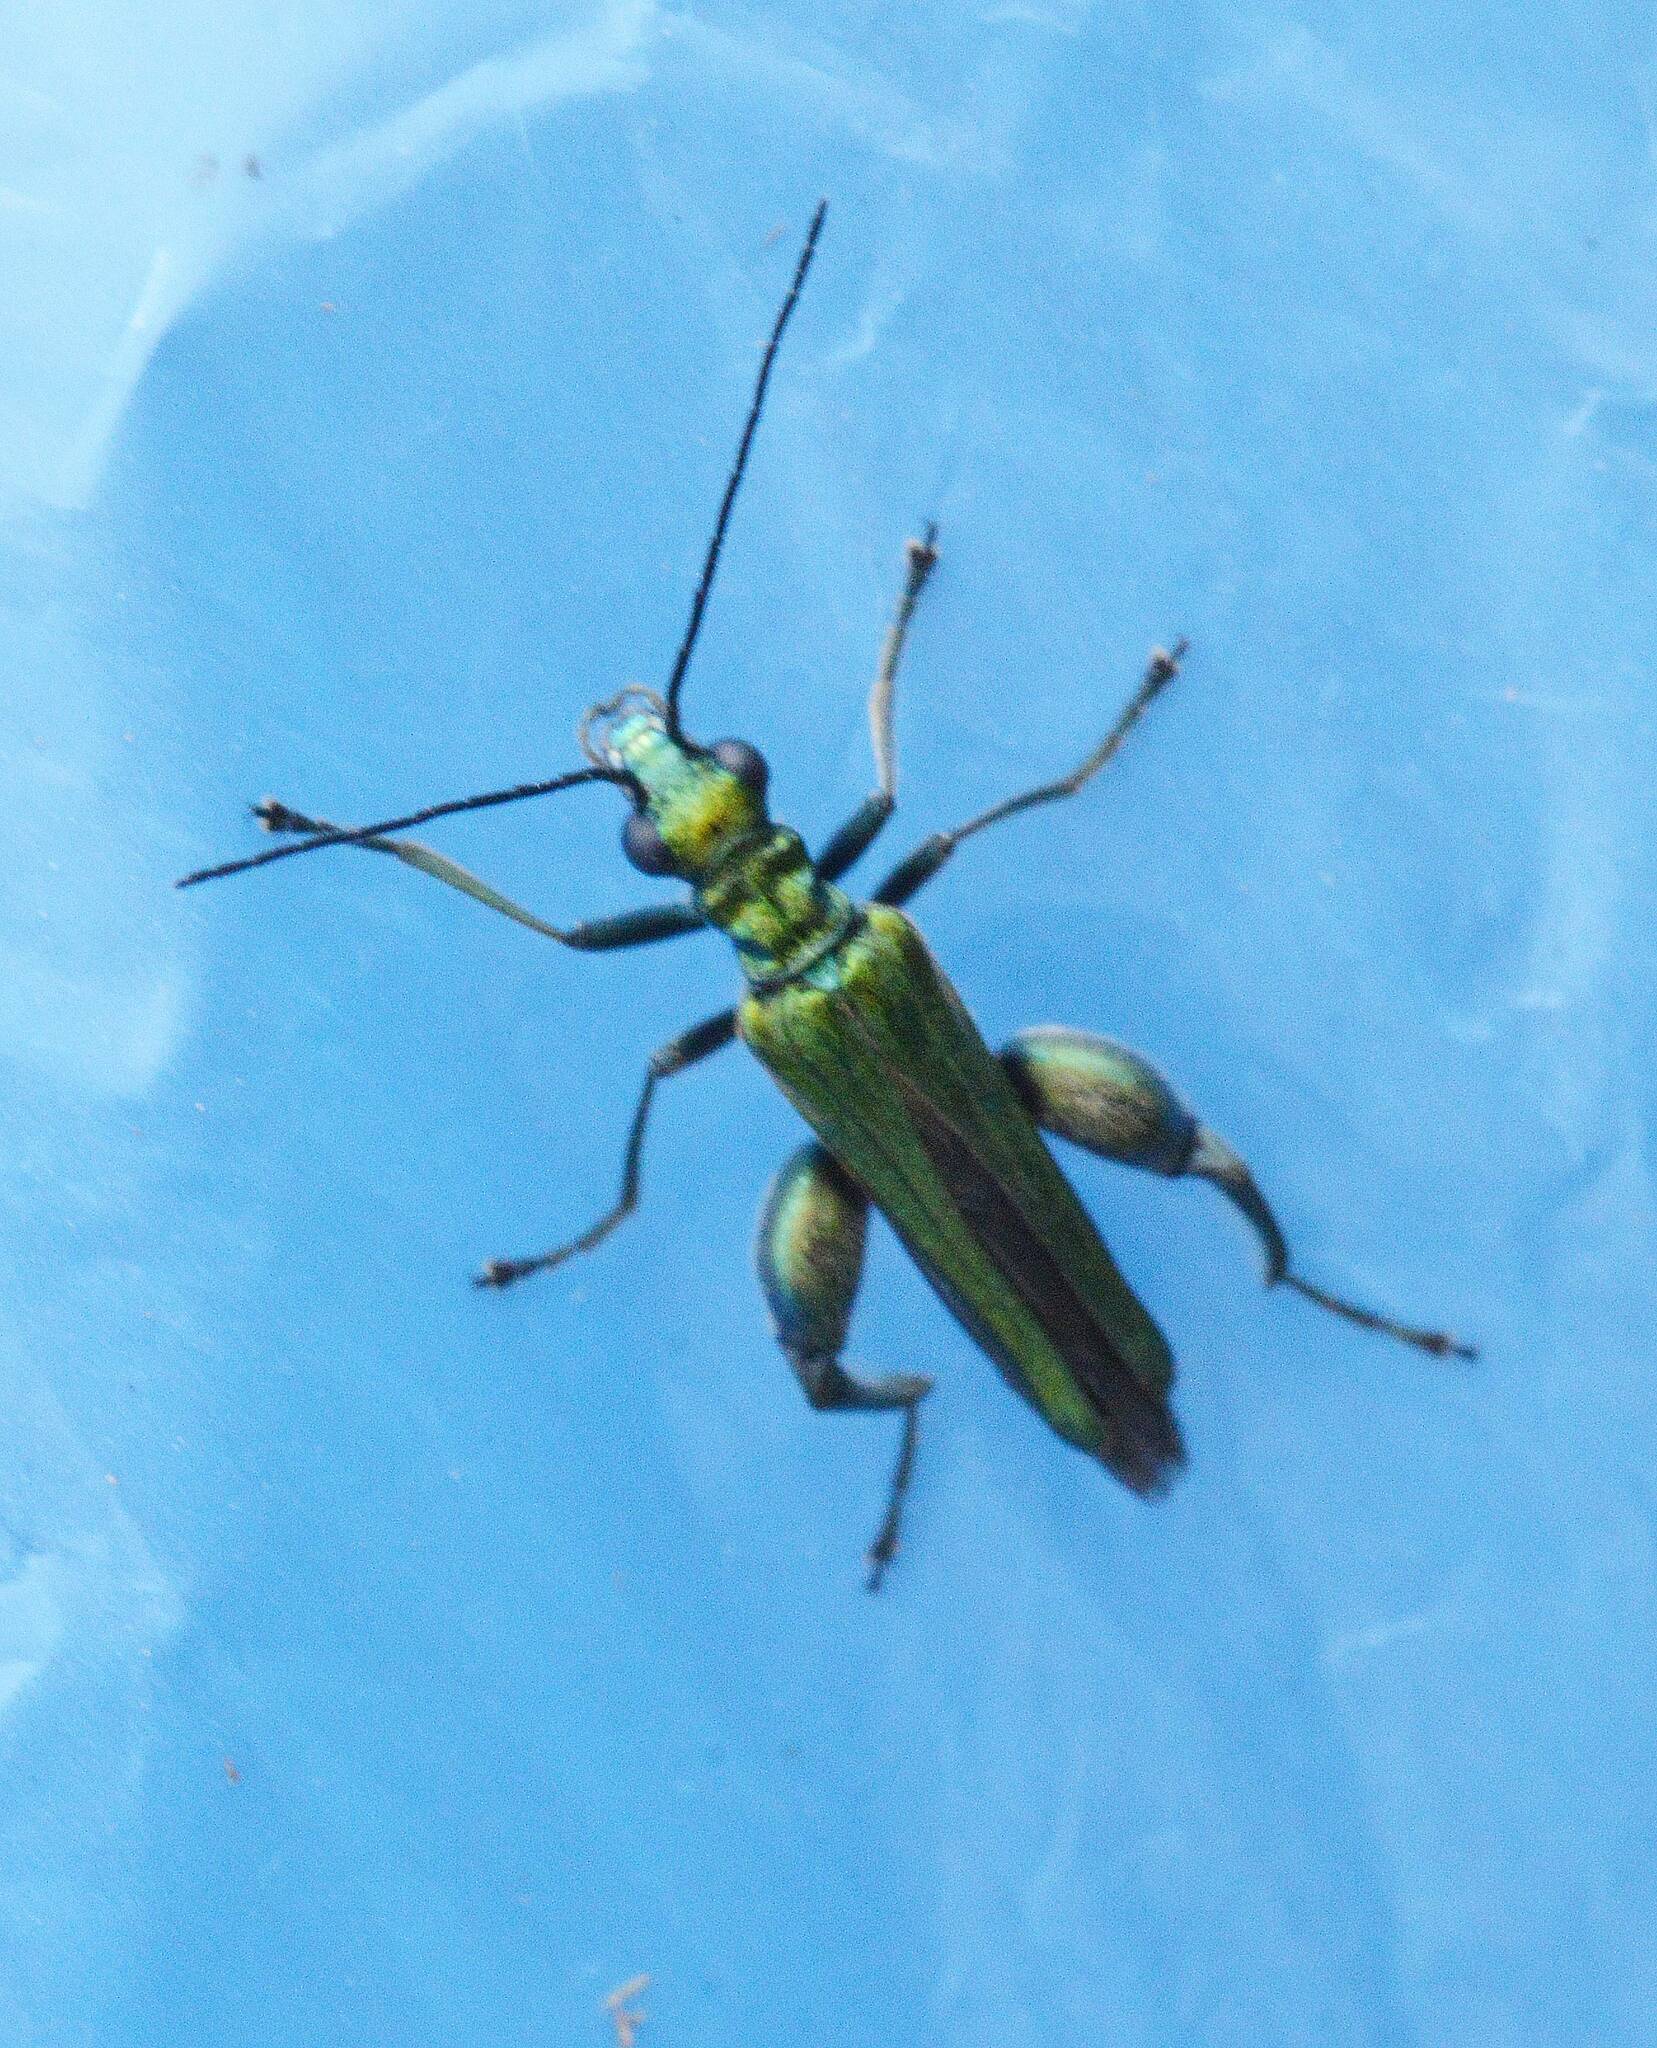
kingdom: Animalia
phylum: Arthropoda
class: Insecta
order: Coleoptera
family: Oedemeridae
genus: Oedemera
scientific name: Oedemera nobilis
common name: Swollen-thighed beetle
